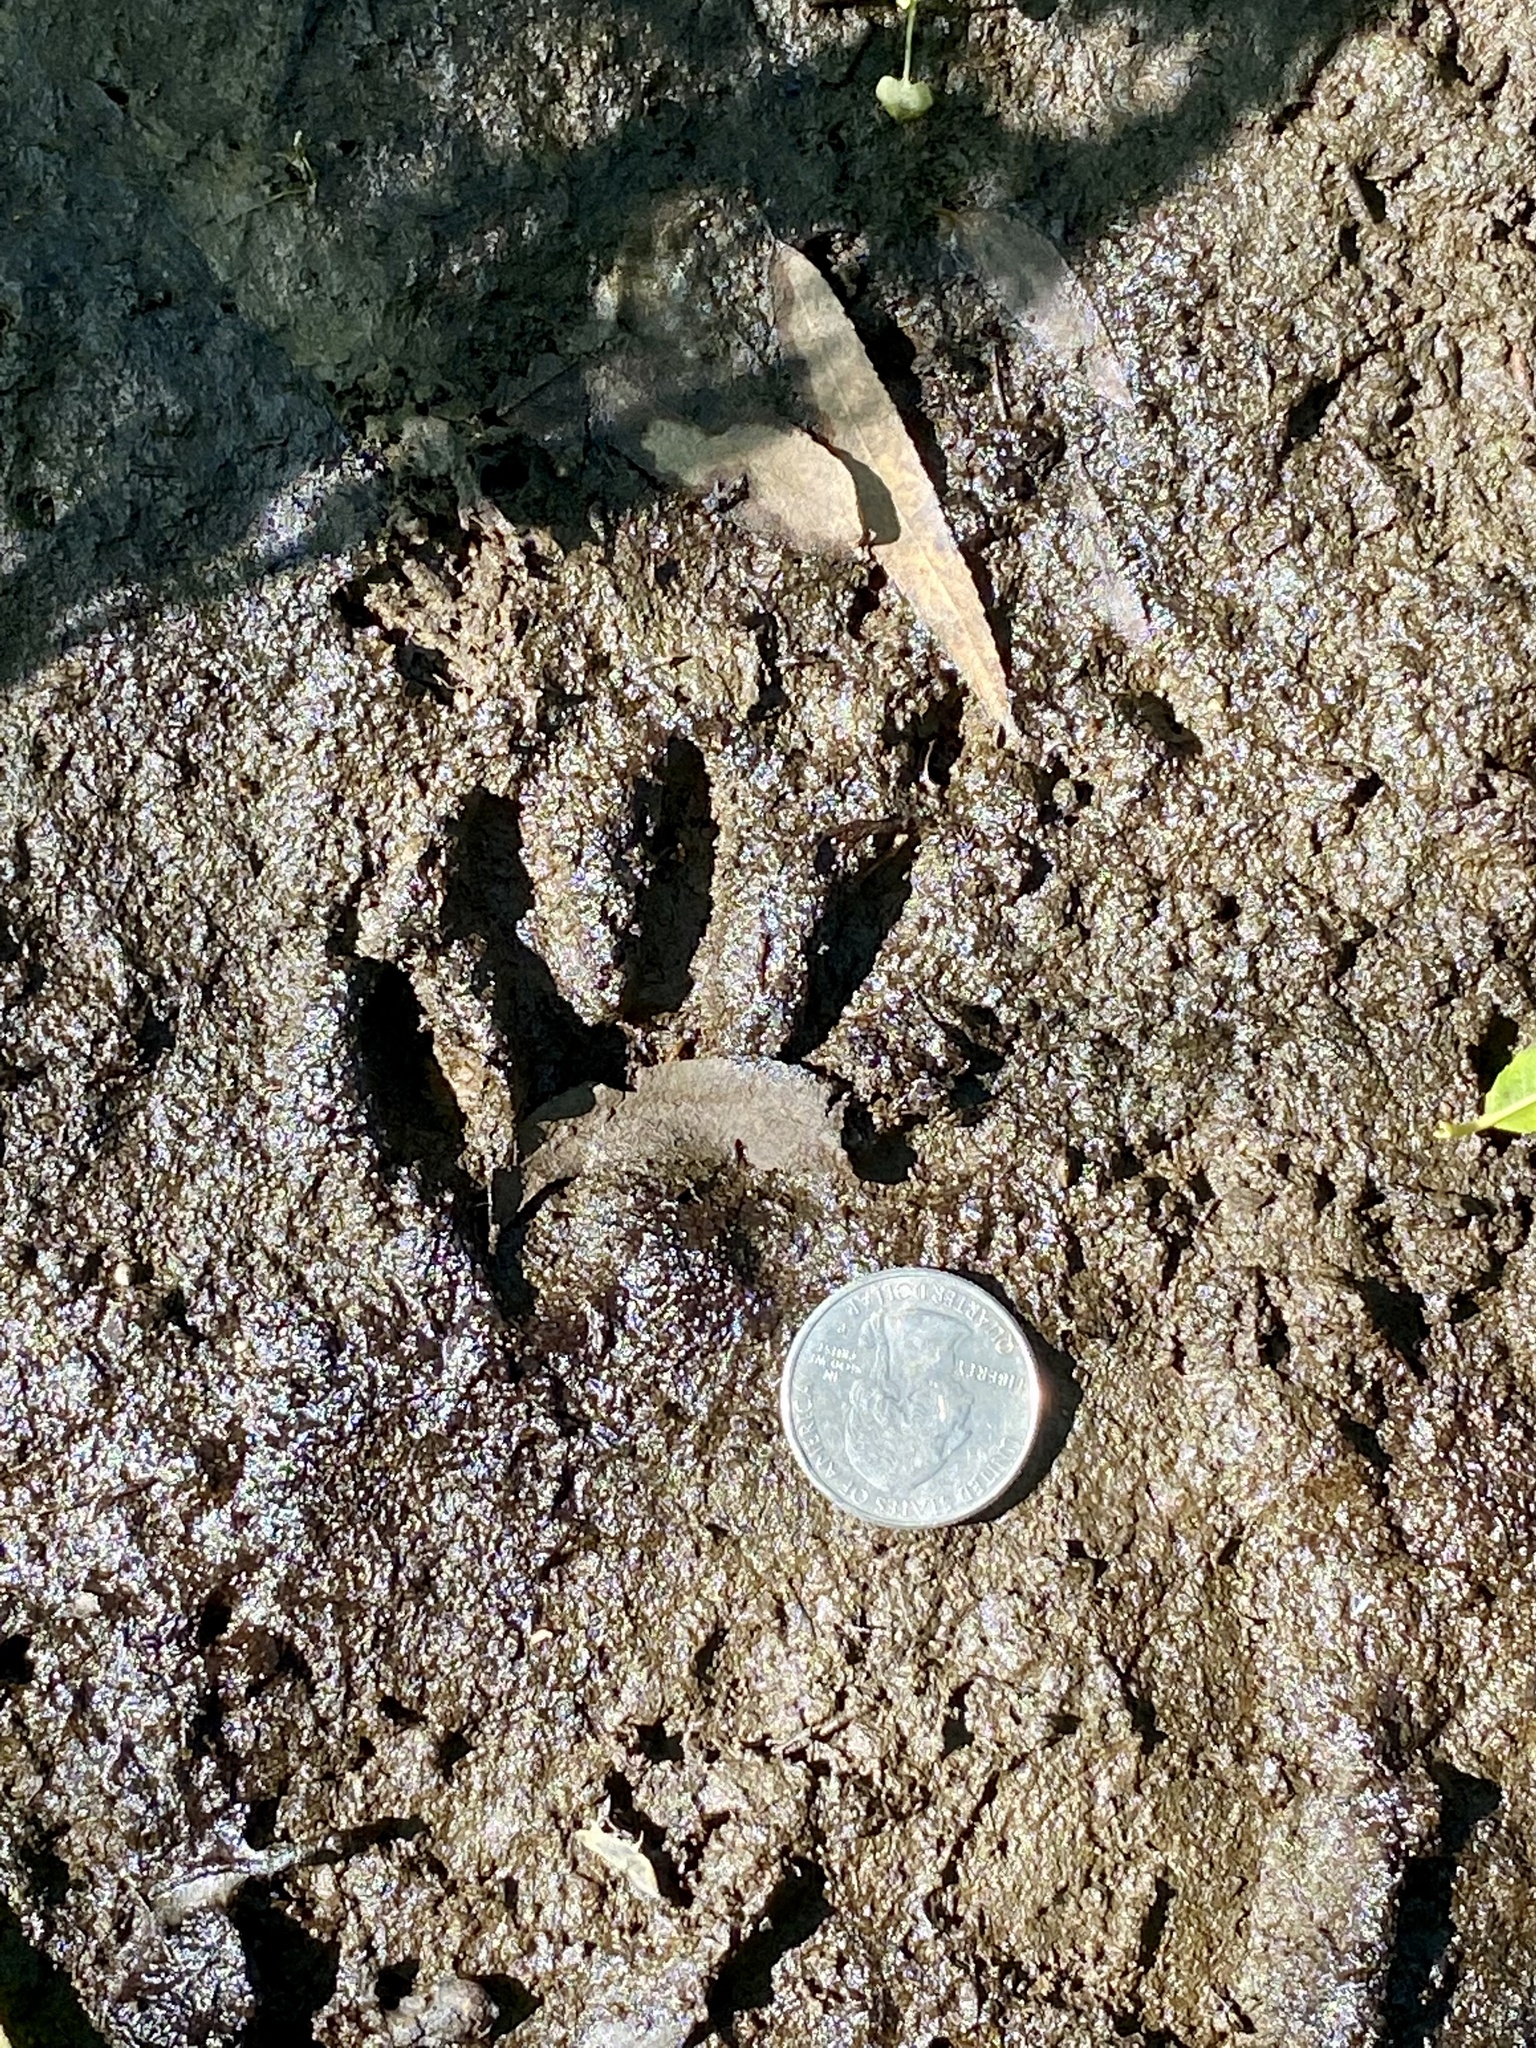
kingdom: Animalia
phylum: Chordata
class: Mammalia
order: Carnivora
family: Procyonidae
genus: Procyon
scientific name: Procyon lotor
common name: Raccoon
